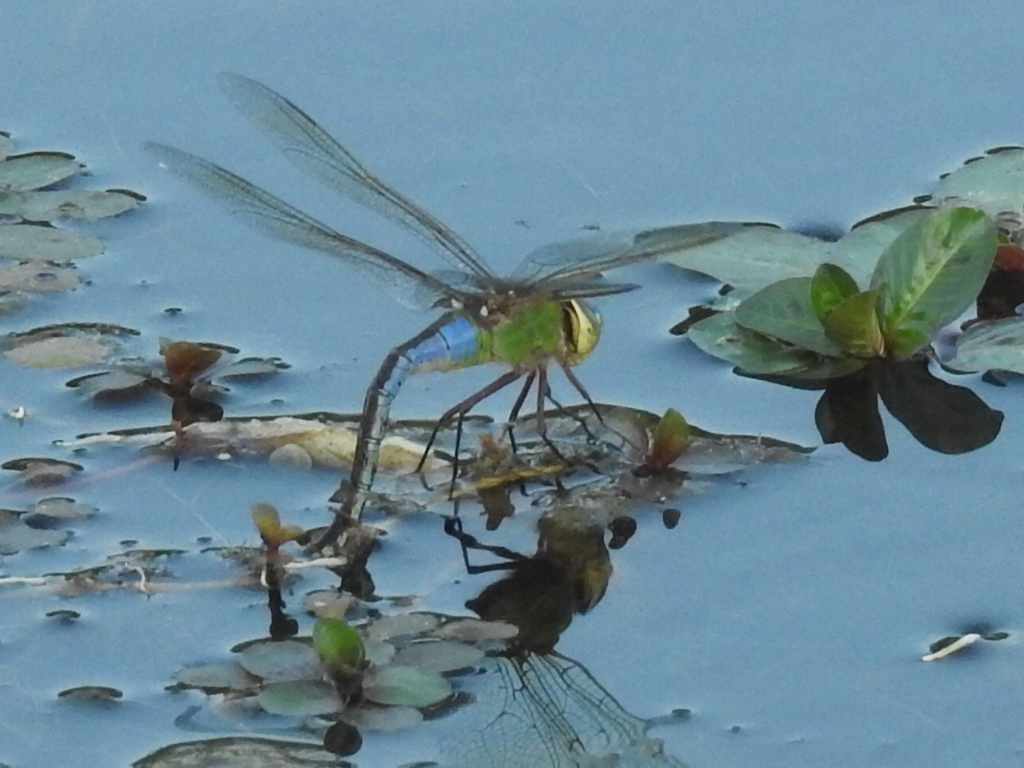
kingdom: Animalia
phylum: Arthropoda
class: Insecta
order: Odonata
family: Aeshnidae
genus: Anax
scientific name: Anax junius
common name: Common green darner
